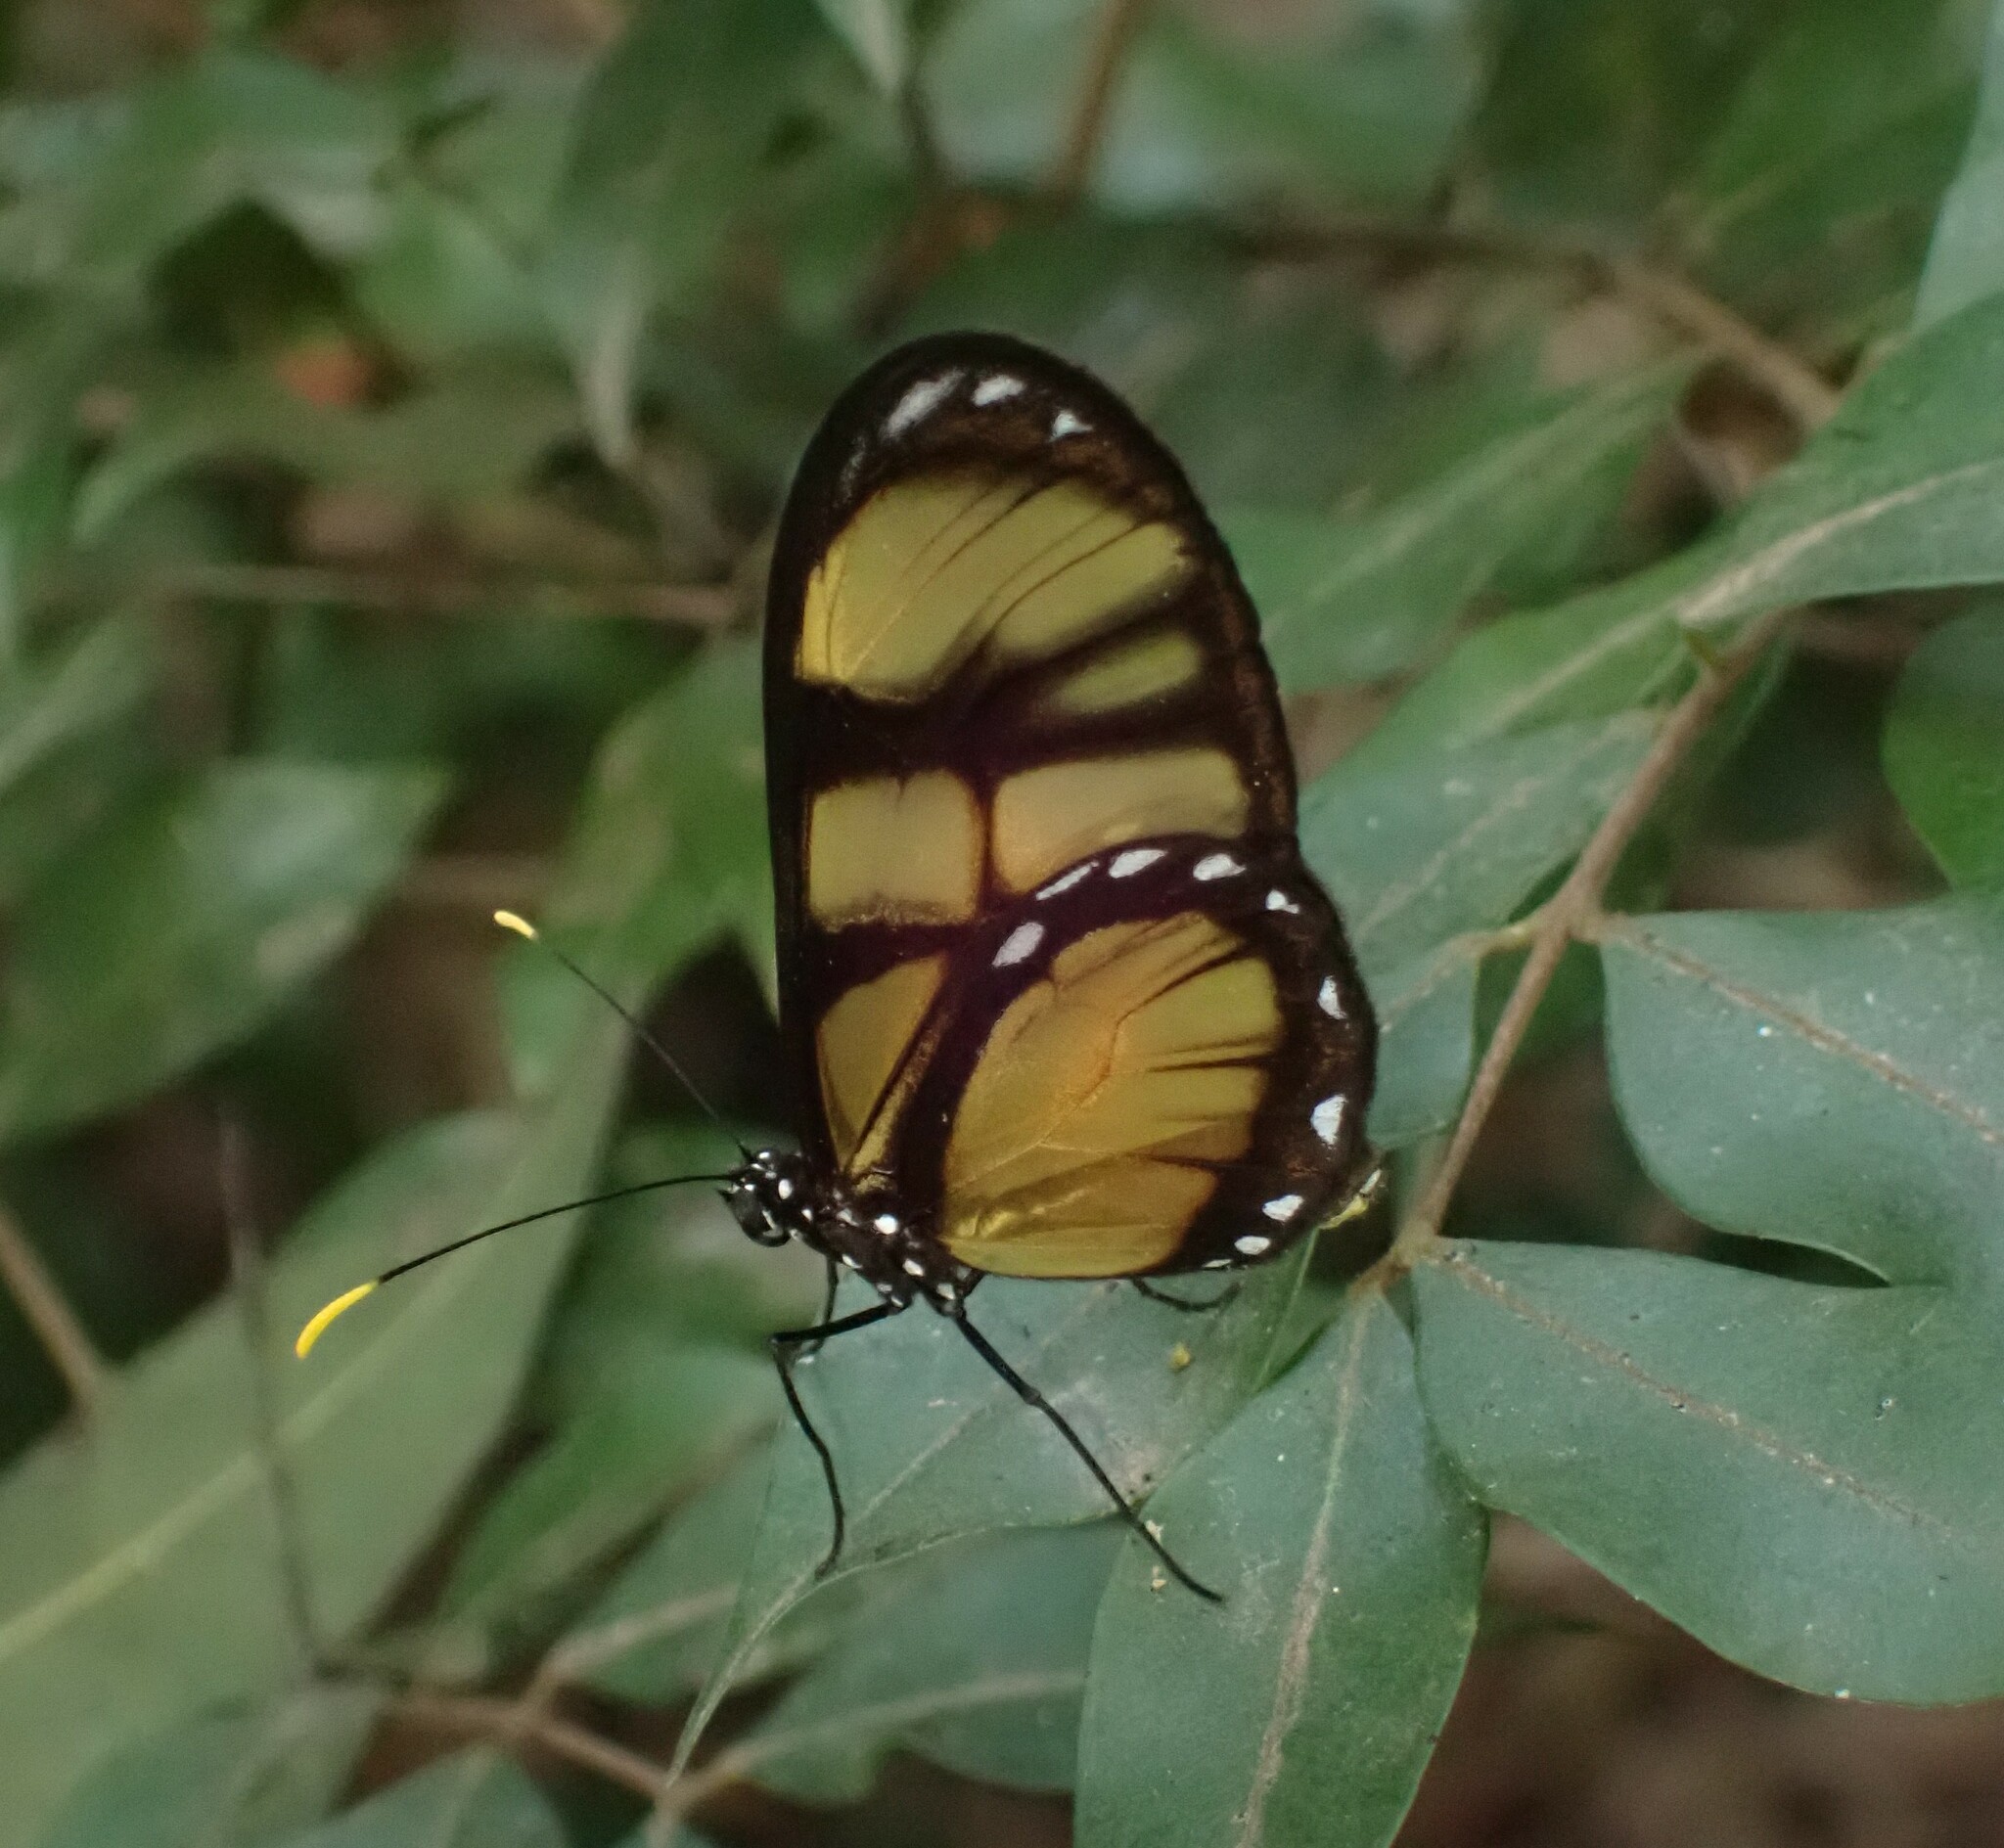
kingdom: Animalia
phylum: Arthropoda
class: Insecta
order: Lepidoptera
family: Nymphalidae
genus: Dircenna
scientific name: Dircenna dero
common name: Dero clearwing
